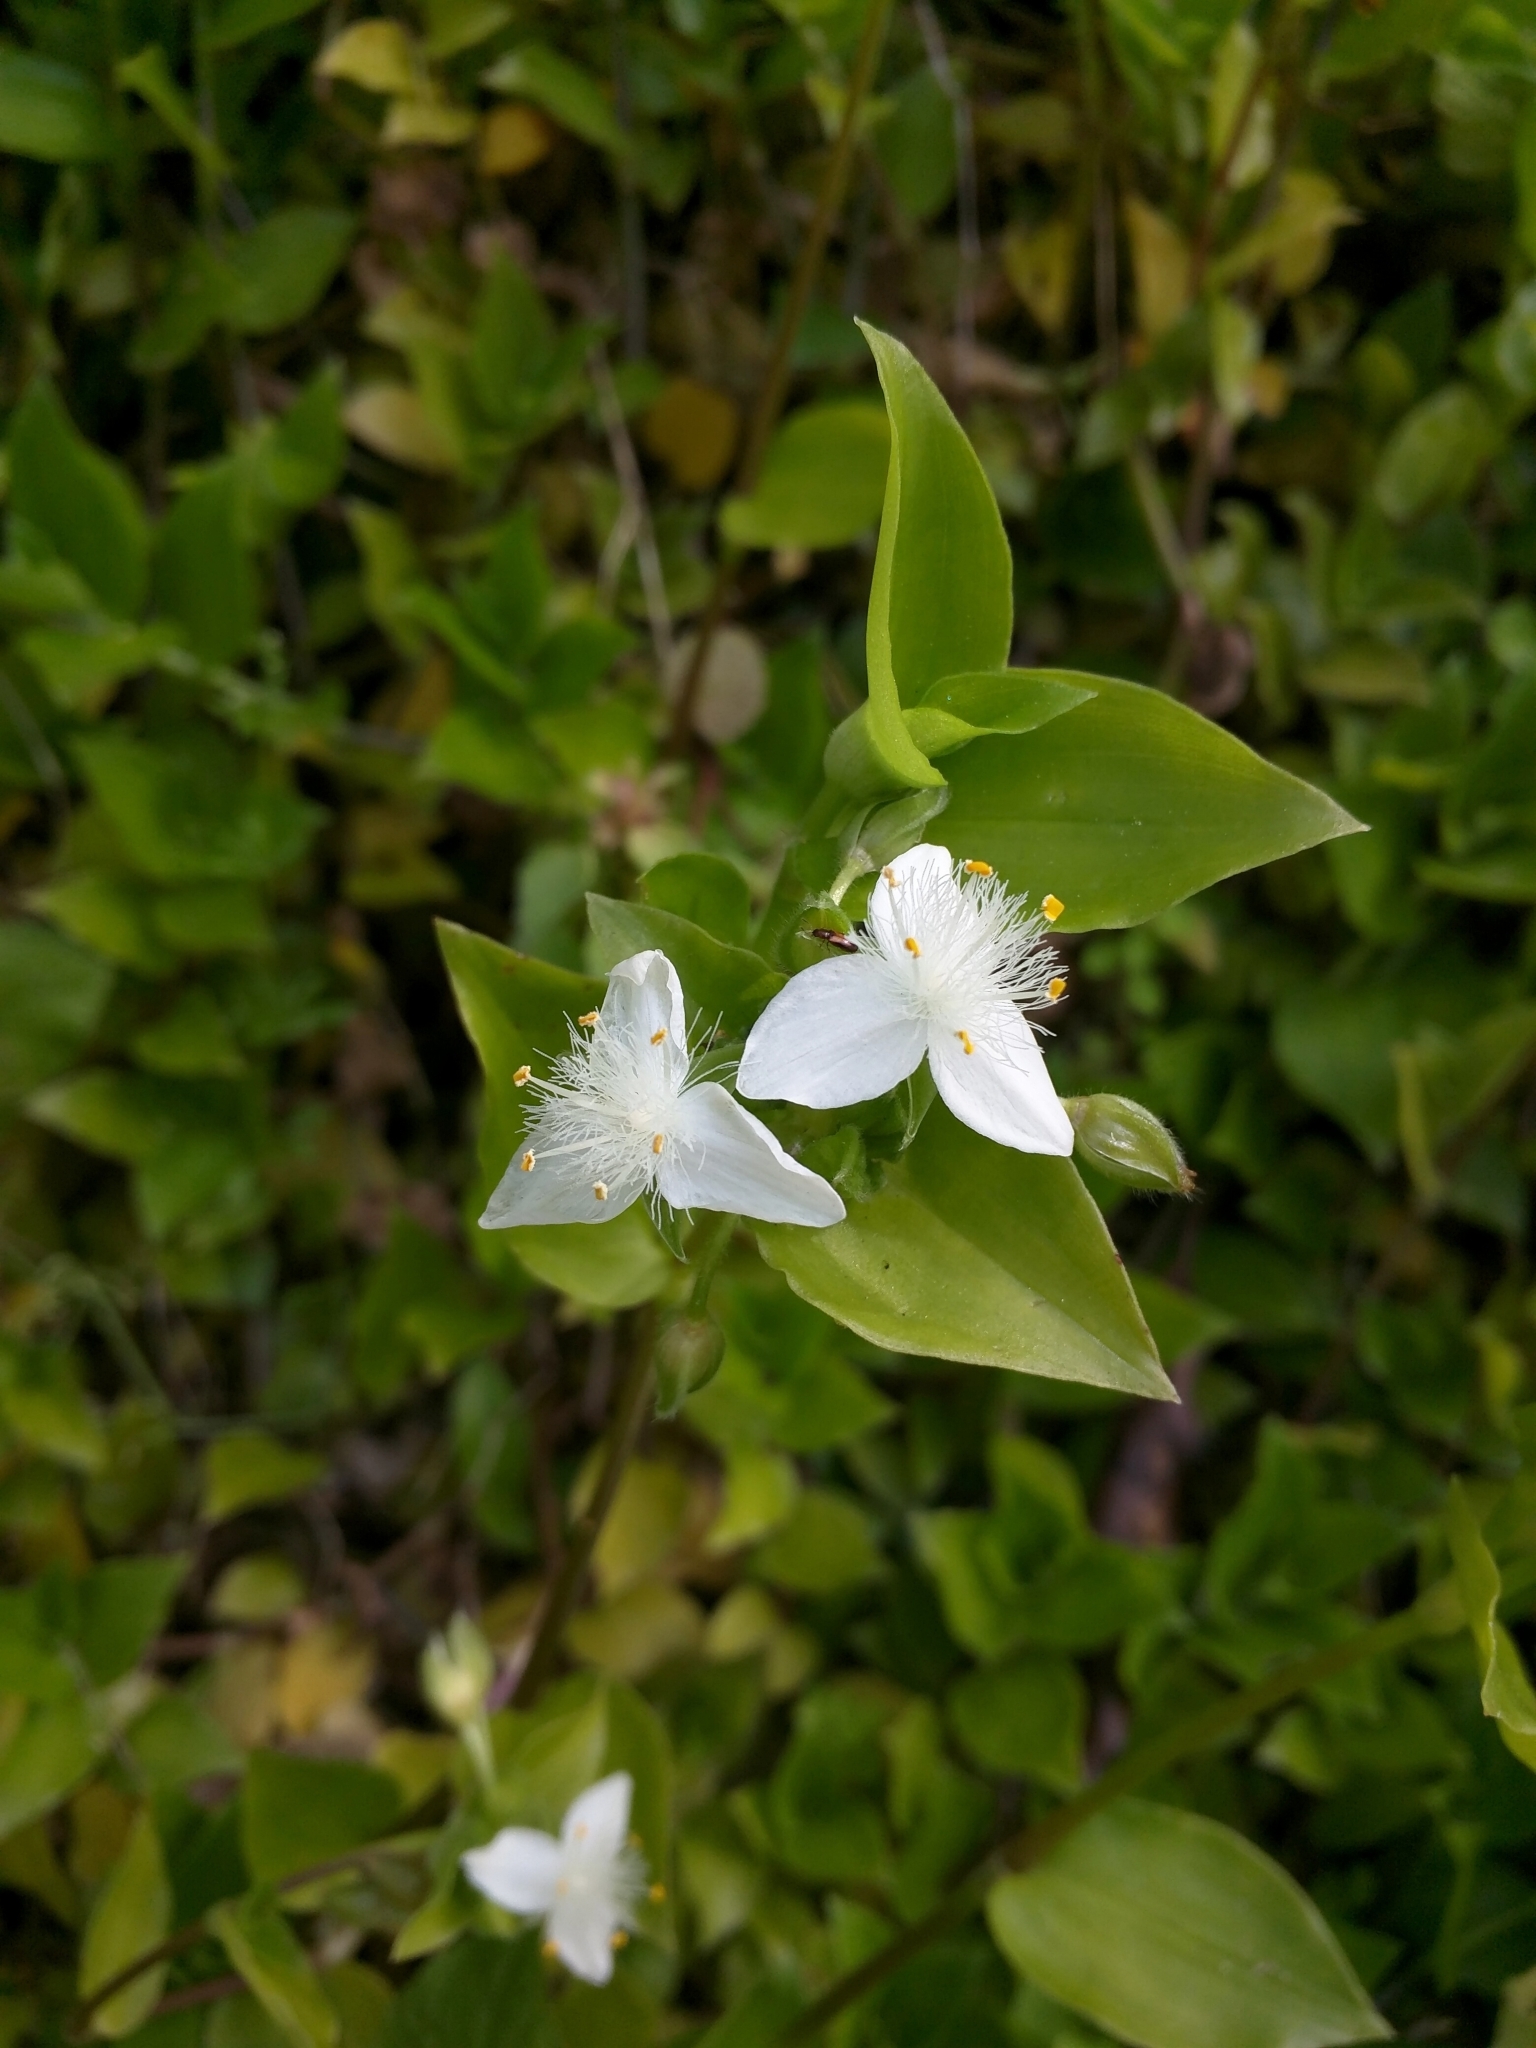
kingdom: Plantae
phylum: Tracheophyta
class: Liliopsida
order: Commelinales
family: Commelinaceae
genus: Tradescantia
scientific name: Tradescantia fluminensis
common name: Wandering-jew
